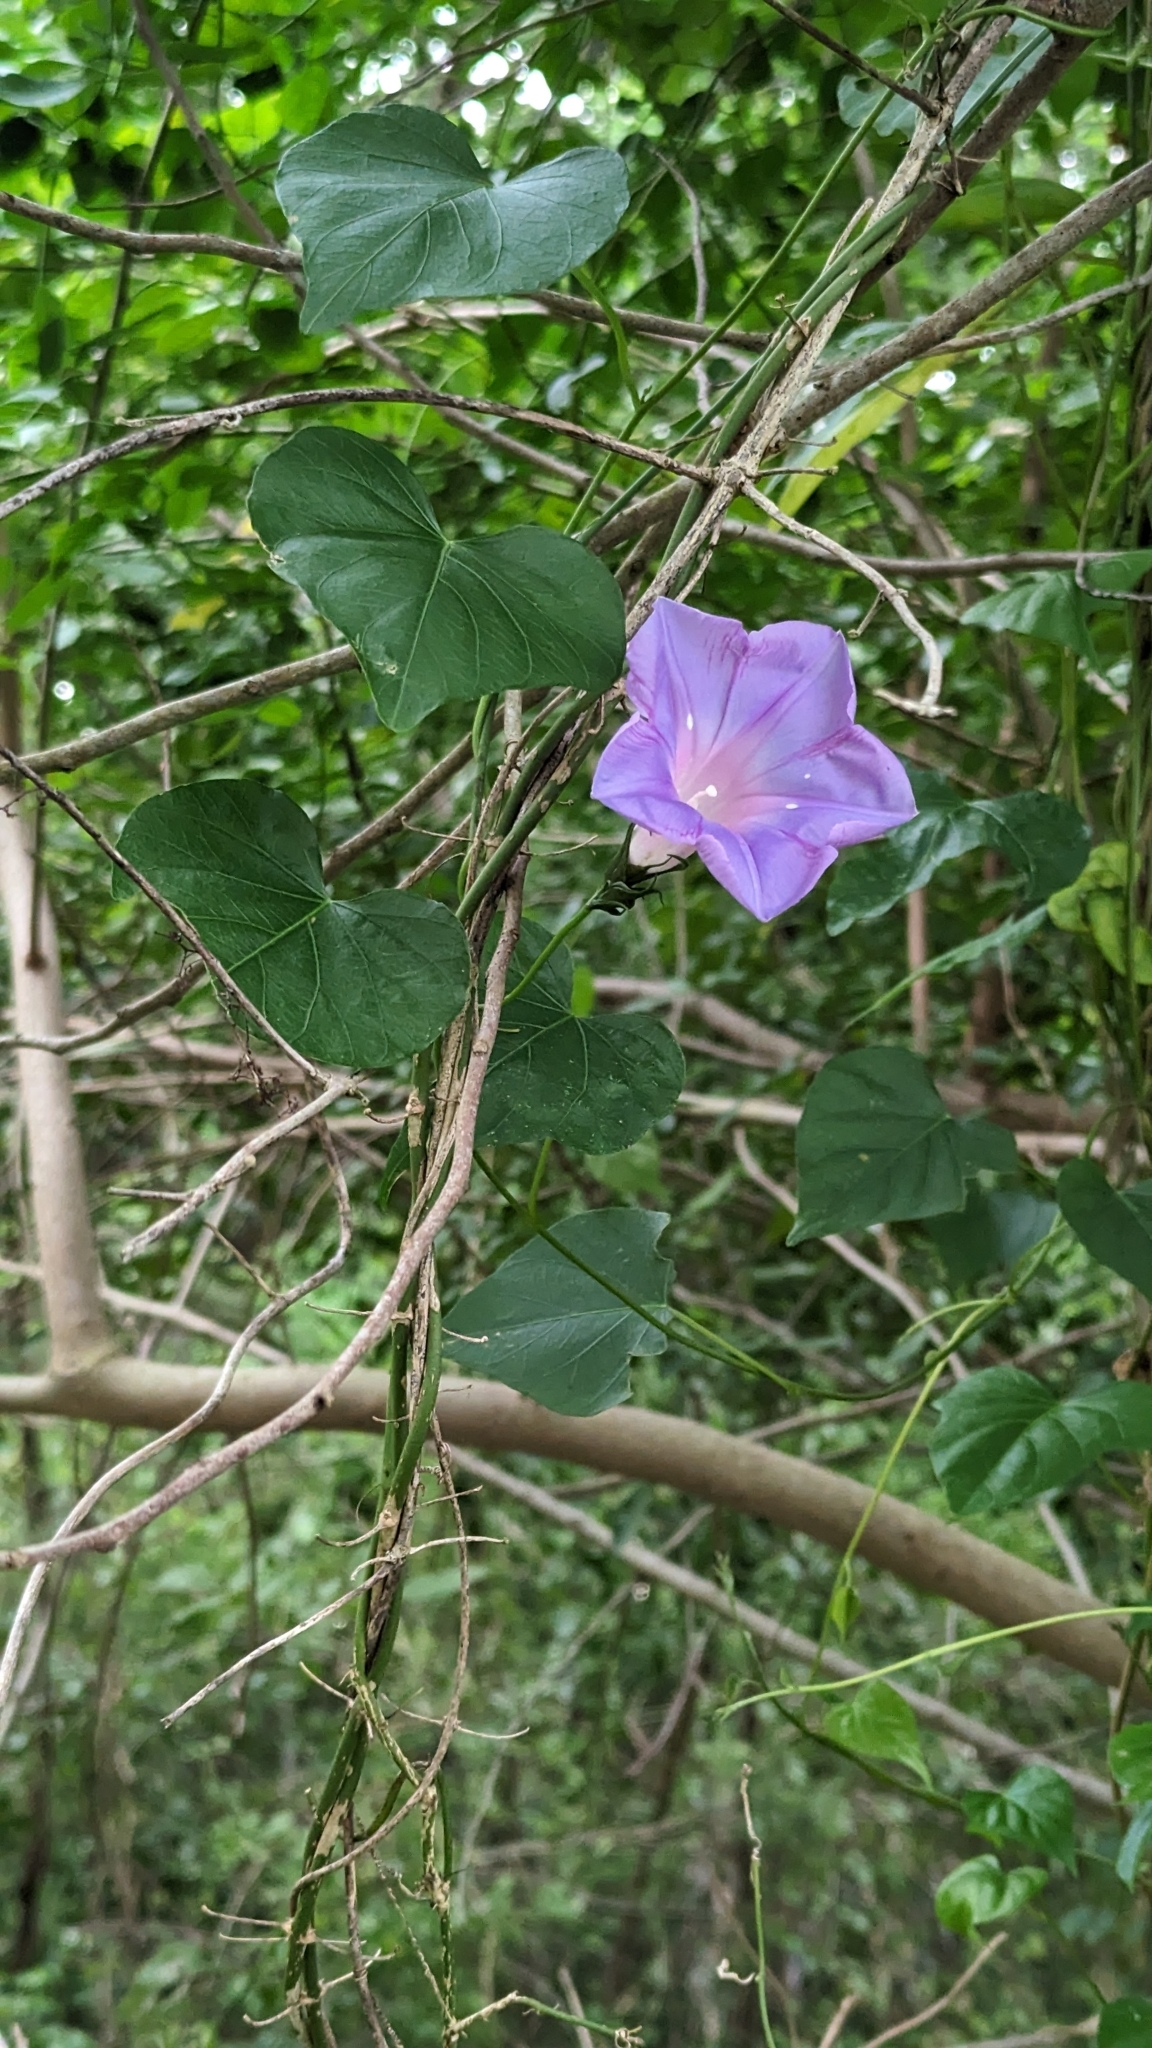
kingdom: Plantae
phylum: Tracheophyta
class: Magnoliopsida
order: Solanales
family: Convolvulaceae
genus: Ipomoea
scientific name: Ipomoea indica
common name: Blue dawnflower
